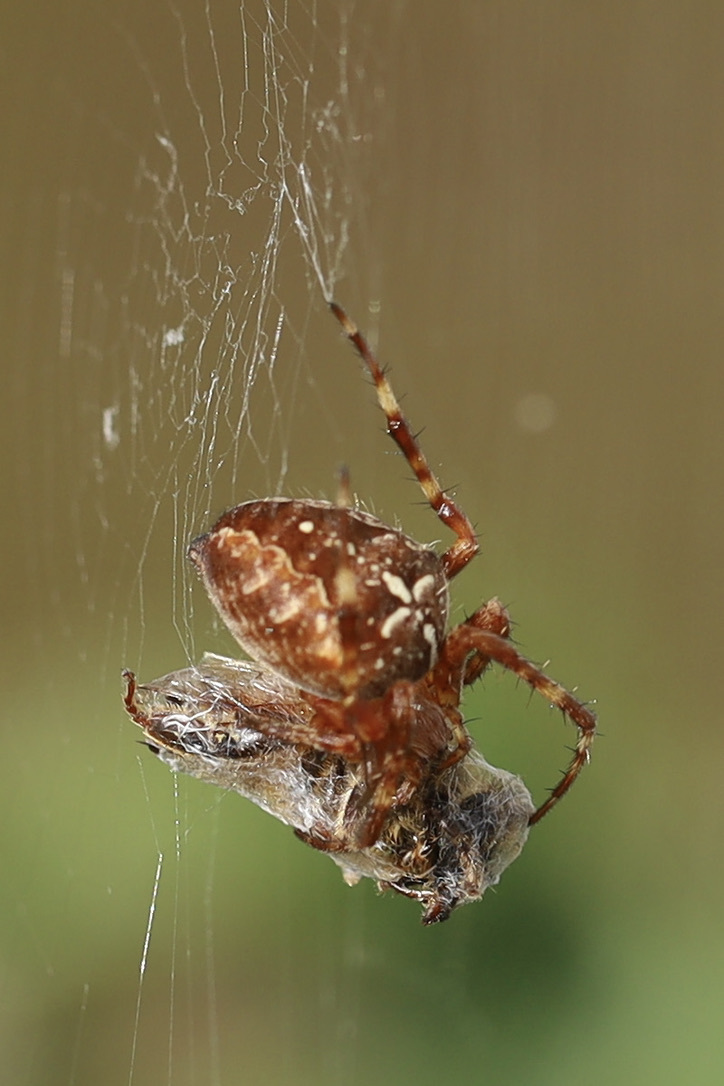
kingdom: Animalia
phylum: Arthropoda
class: Insecta
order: Hymenoptera
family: Apidae
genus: Apis
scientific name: Apis mellifera
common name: Honey bee
